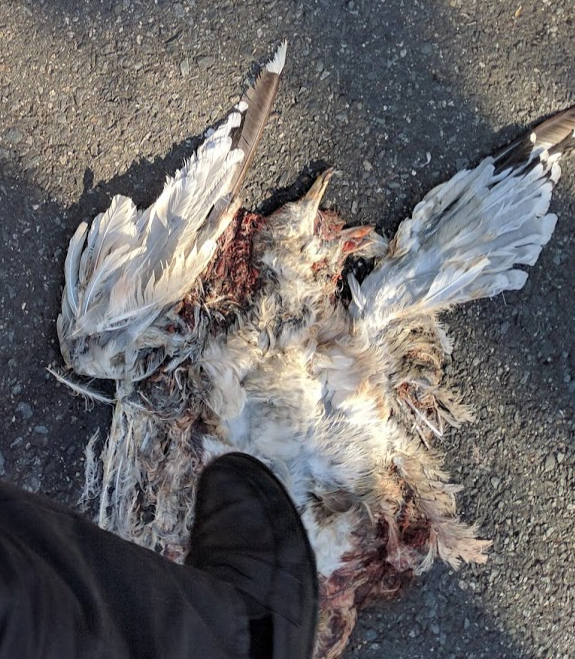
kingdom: Animalia
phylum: Chordata
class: Aves
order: Charadriiformes
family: Laridae
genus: Larus
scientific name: Larus
